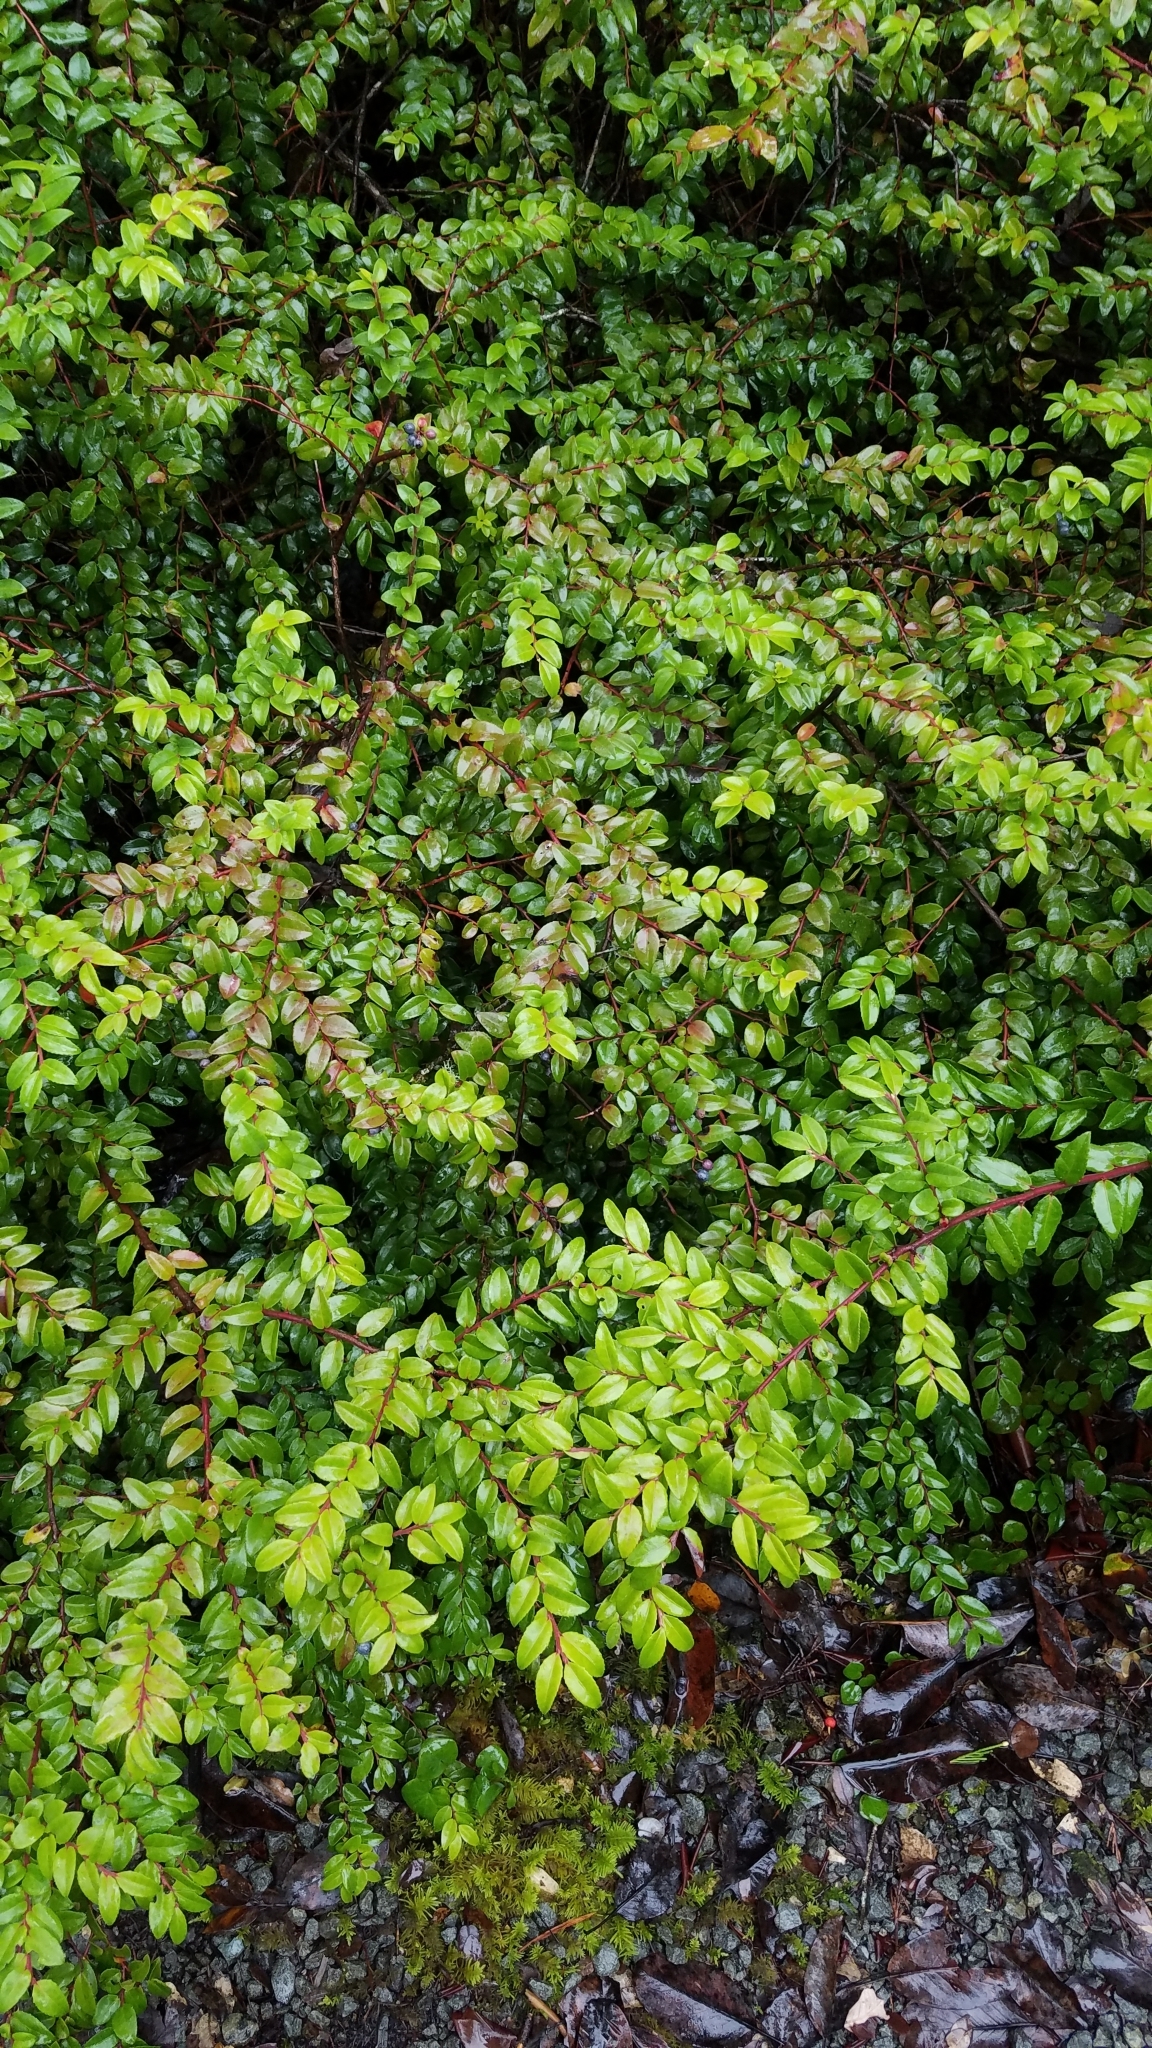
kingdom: Plantae
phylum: Tracheophyta
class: Magnoliopsida
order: Ericales
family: Ericaceae
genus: Vaccinium
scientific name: Vaccinium ovatum
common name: California-huckleberry
